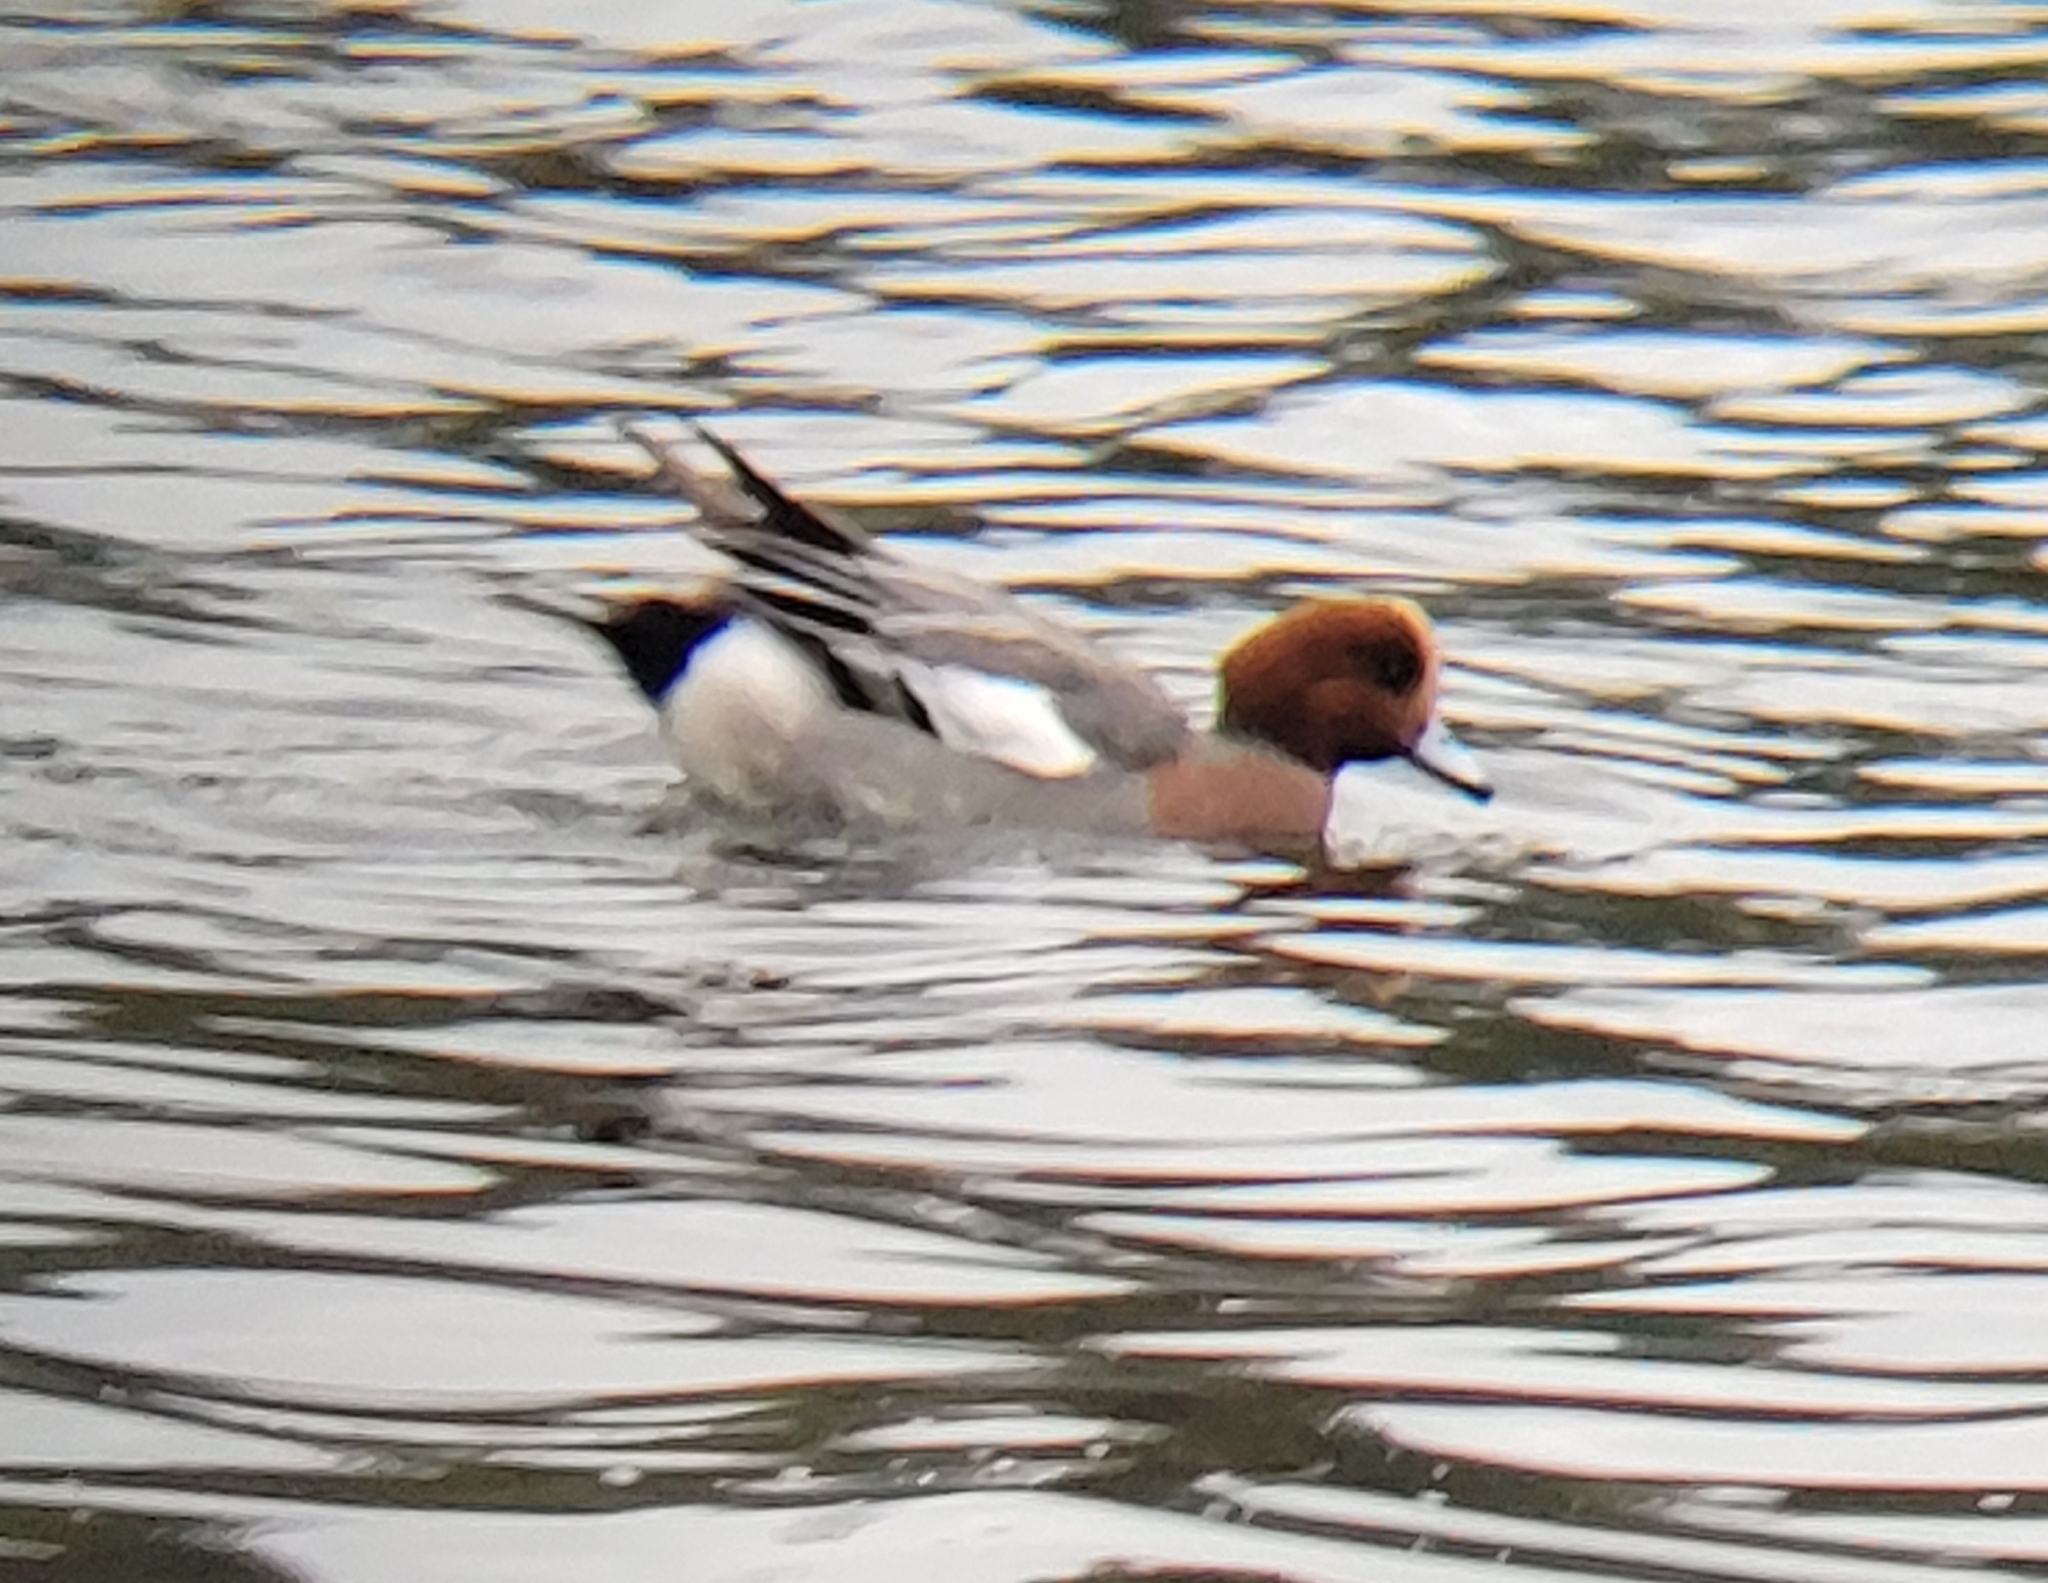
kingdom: Animalia
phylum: Chordata
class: Aves
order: Anseriformes
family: Anatidae
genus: Mareca
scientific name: Mareca penelope
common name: Eurasian wigeon
